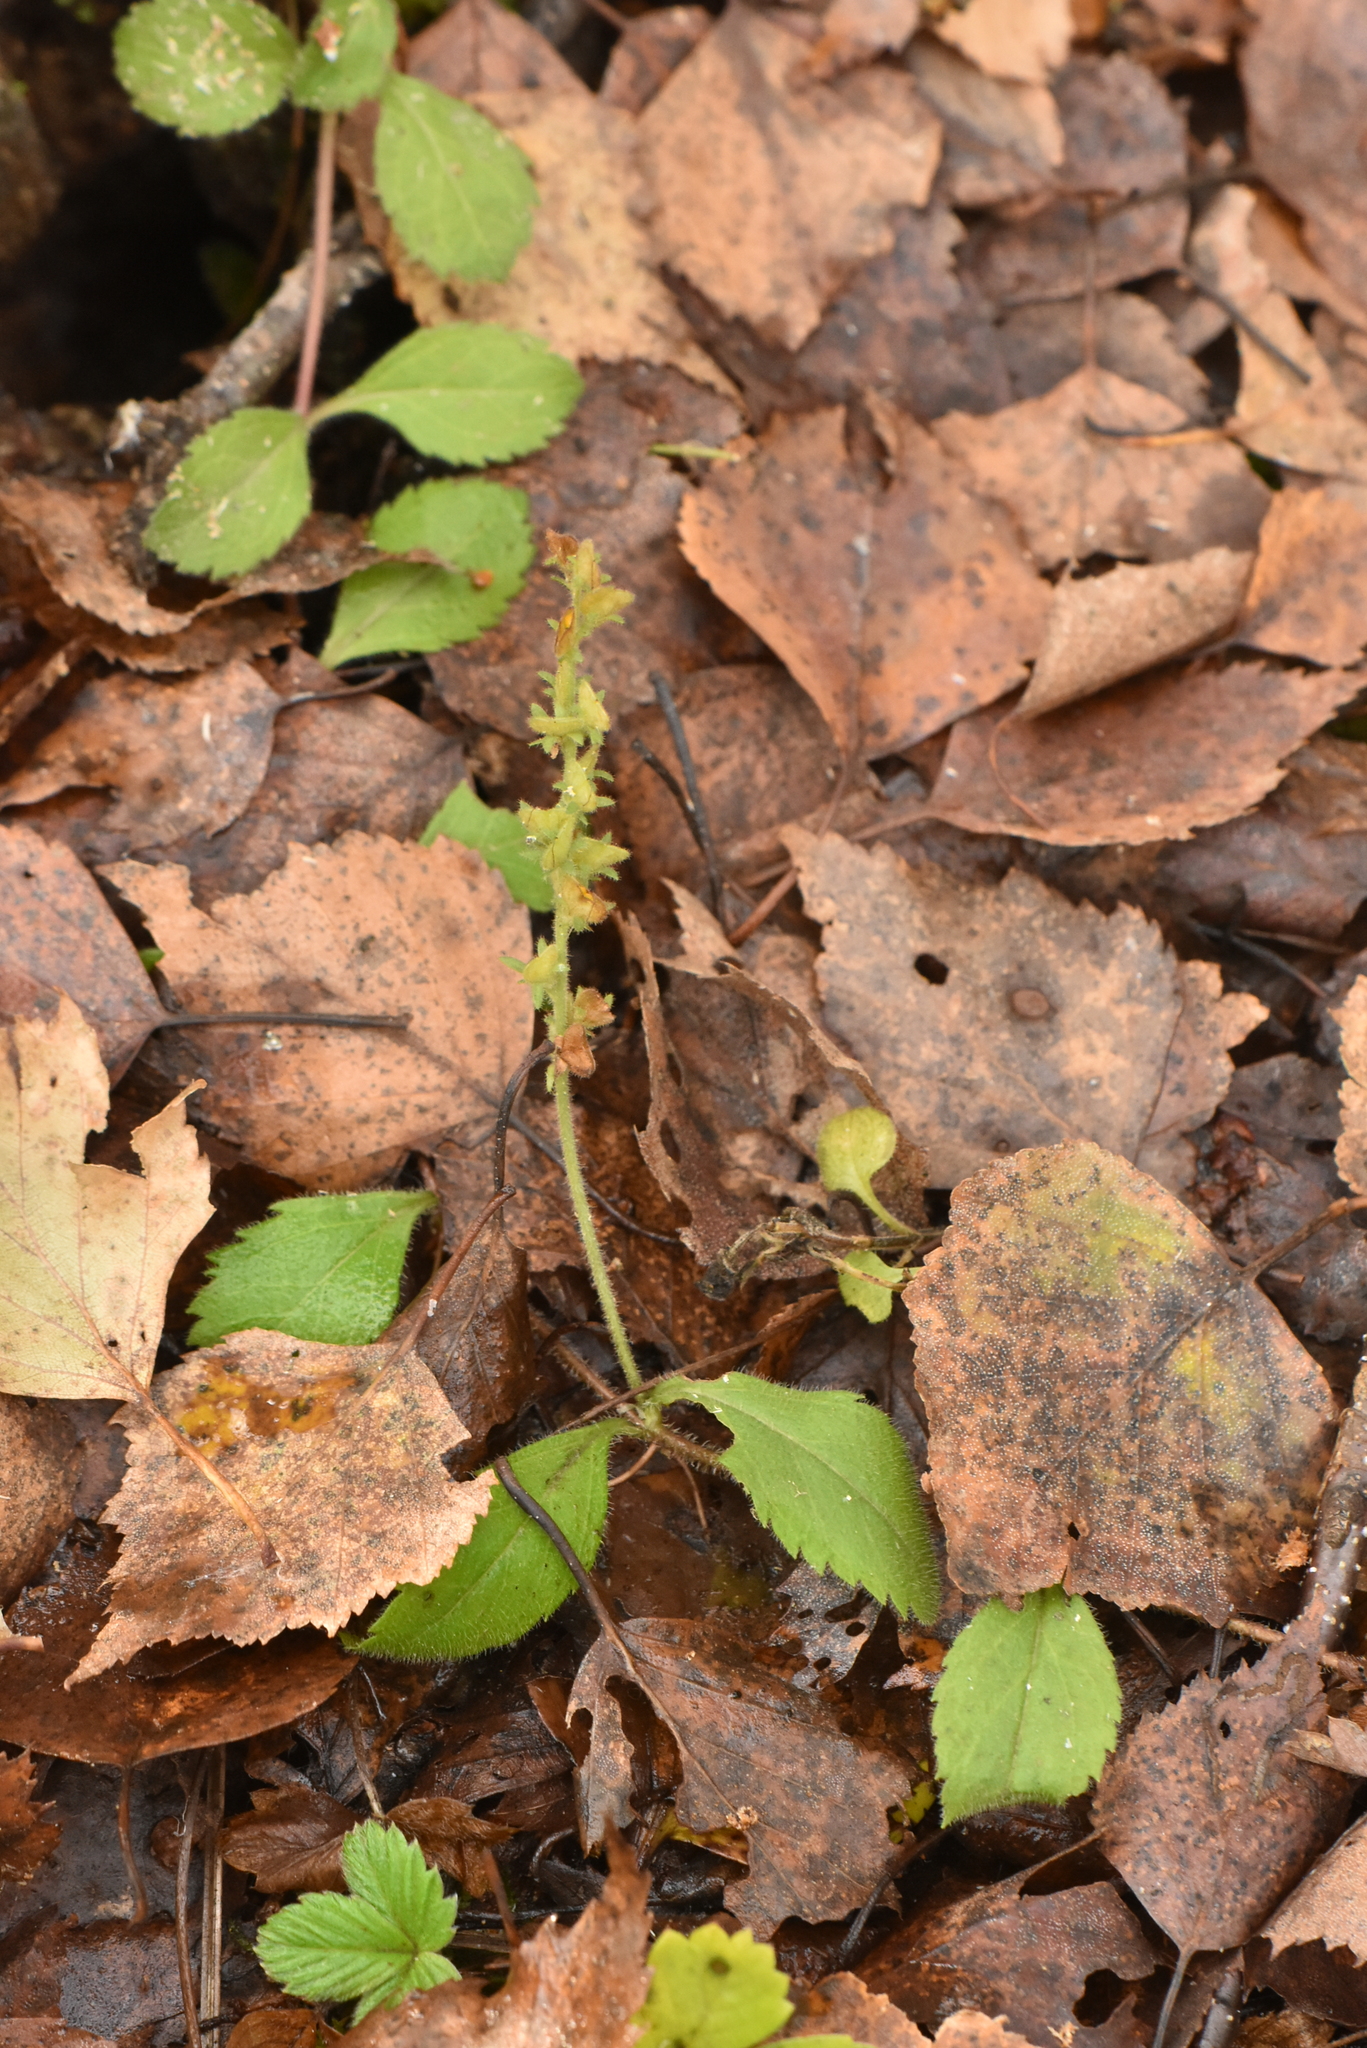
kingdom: Plantae
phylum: Tracheophyta
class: Magnoliopsida
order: Lamiales
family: Plantaginaceae
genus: Veronica
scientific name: Veronica officinalis
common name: Common speedwell
